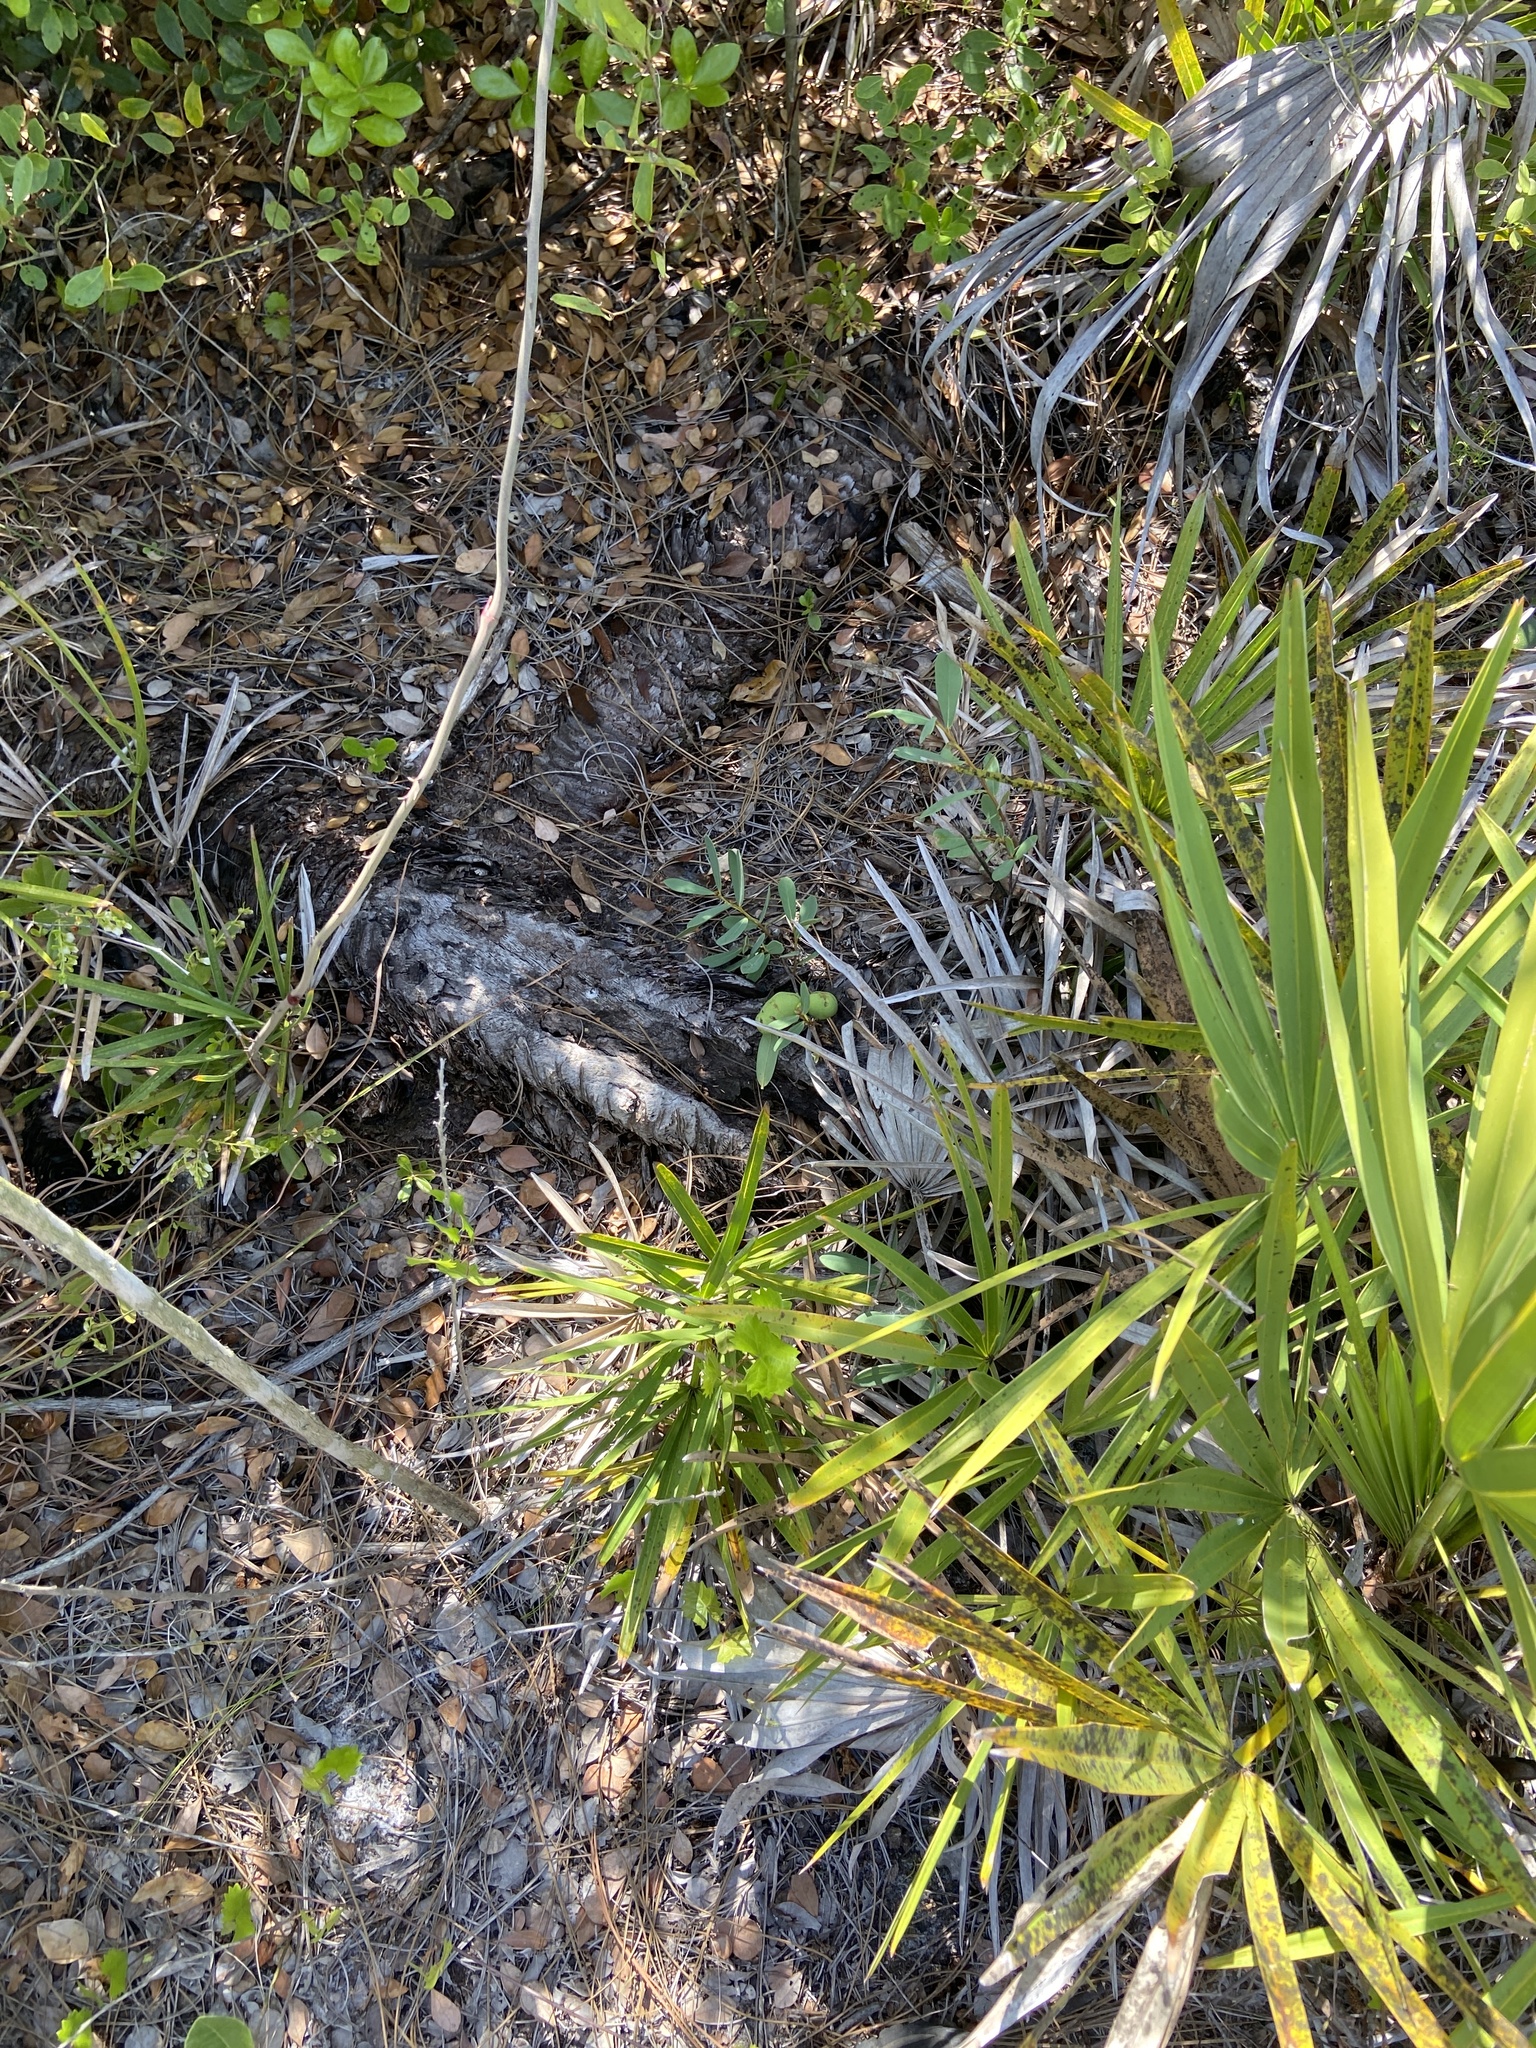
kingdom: Plantae
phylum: Tracheophyta
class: Magnoliopsida
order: Magnoliales
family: Annonaceae
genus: Asimina
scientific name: Asimina reticulata
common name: Flag pawpaw
